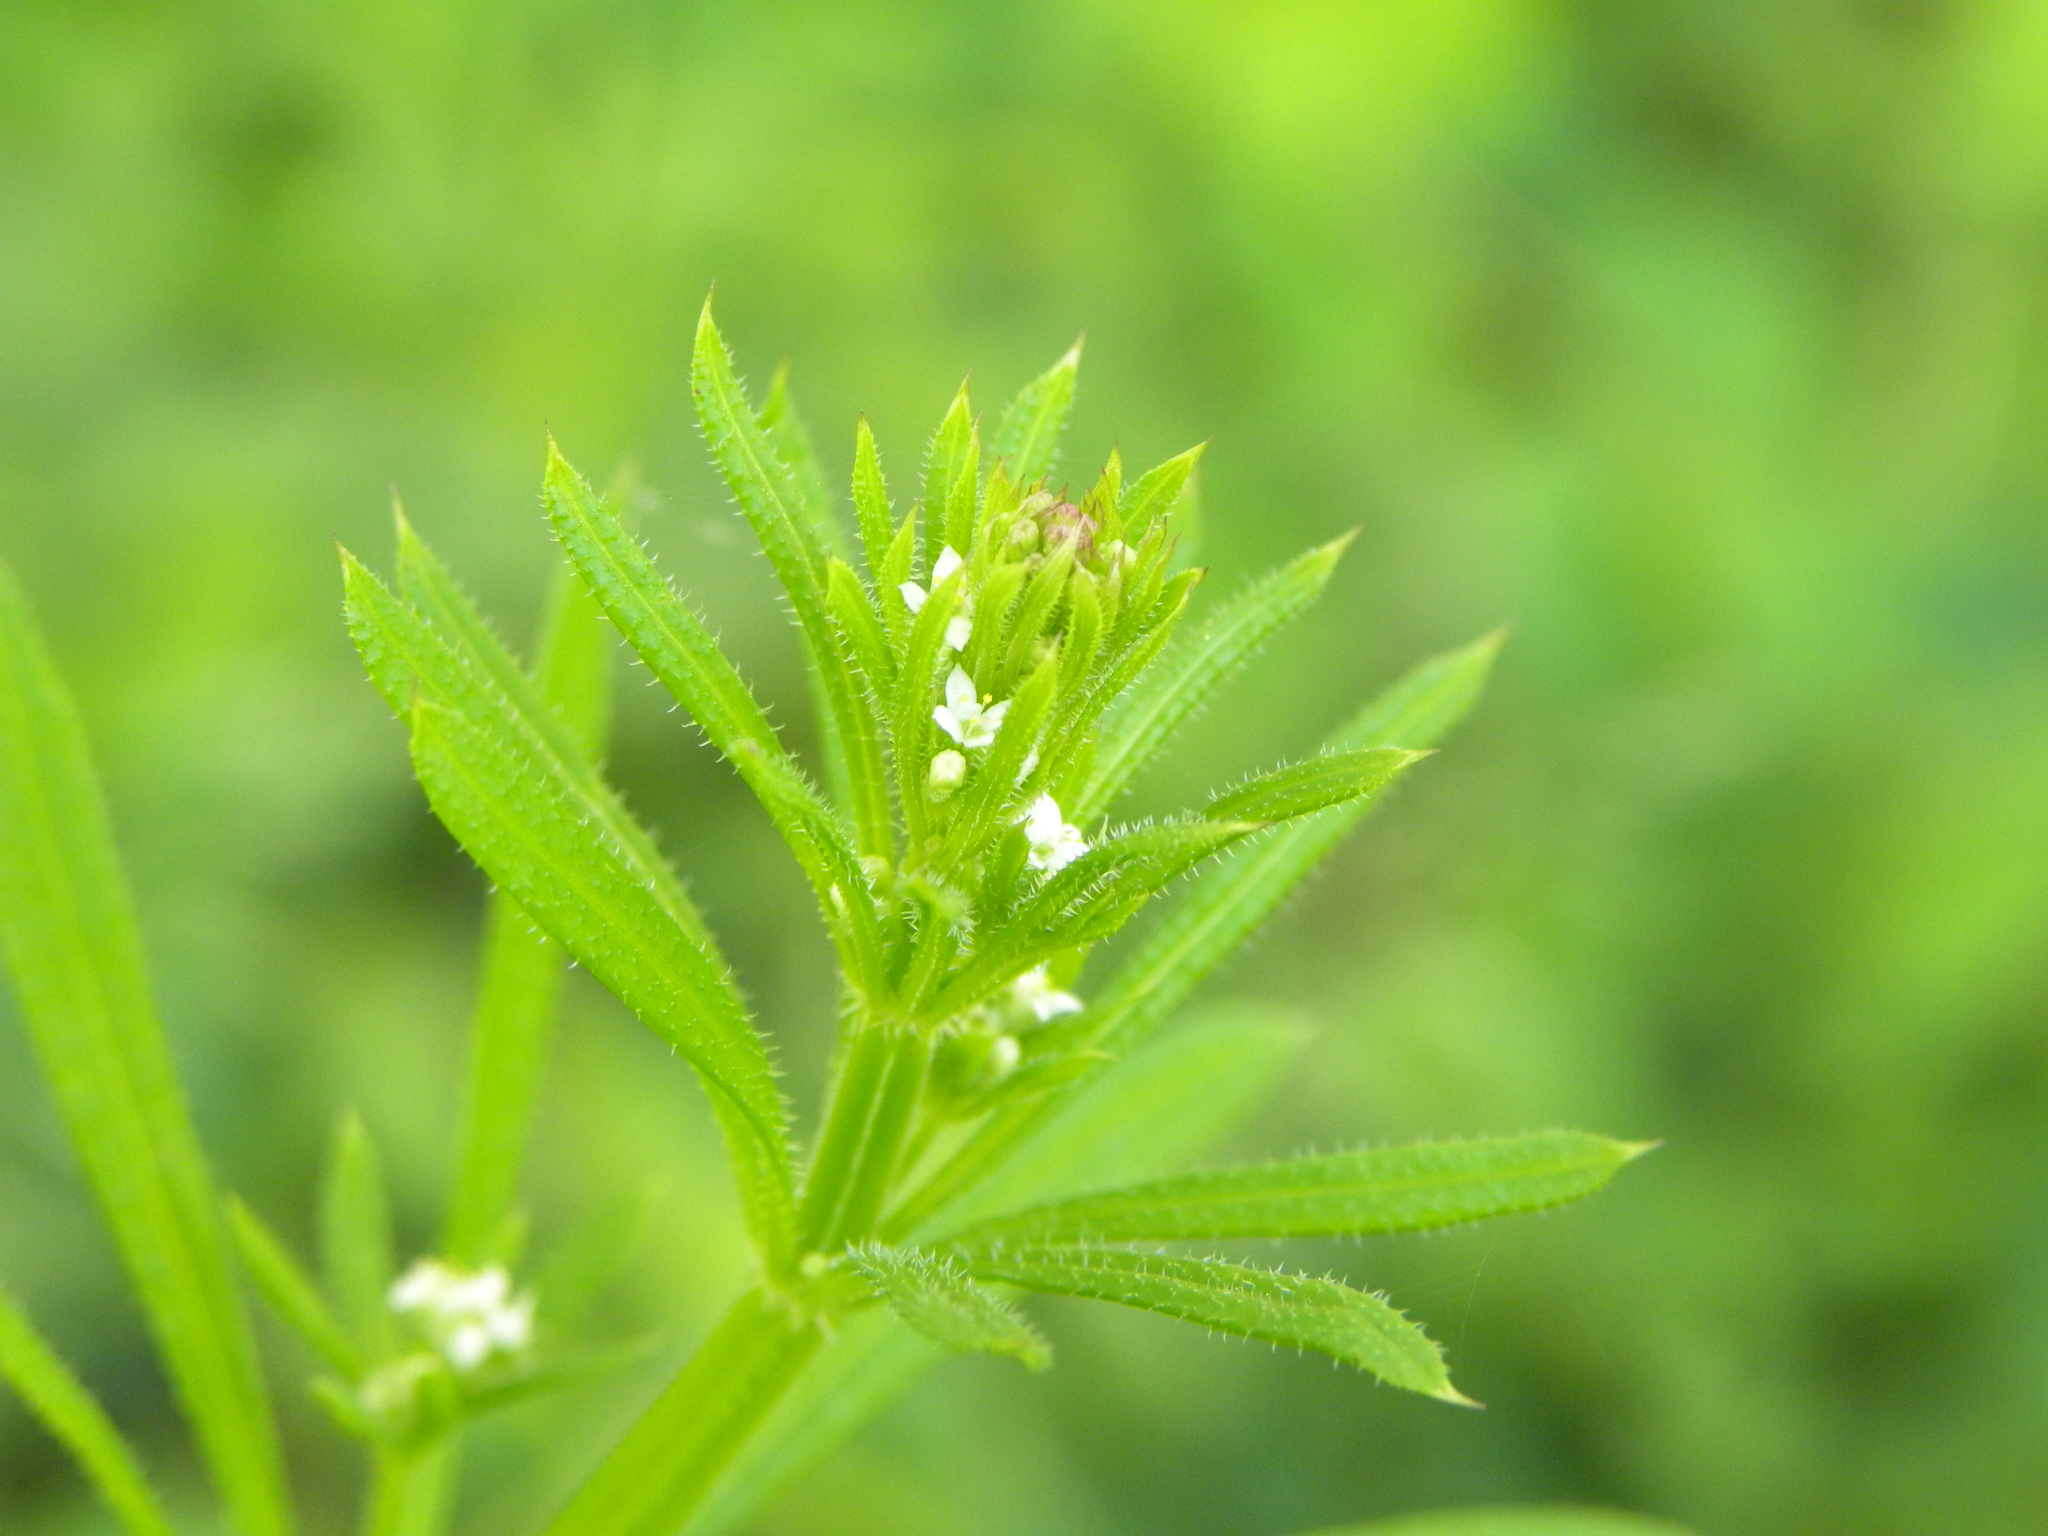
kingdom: Plantae
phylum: Tracheophyta
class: Magnoliopsida
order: Gentianales
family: Rubiaceae
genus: Galium
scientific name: Galium aparine
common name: Cleavers
